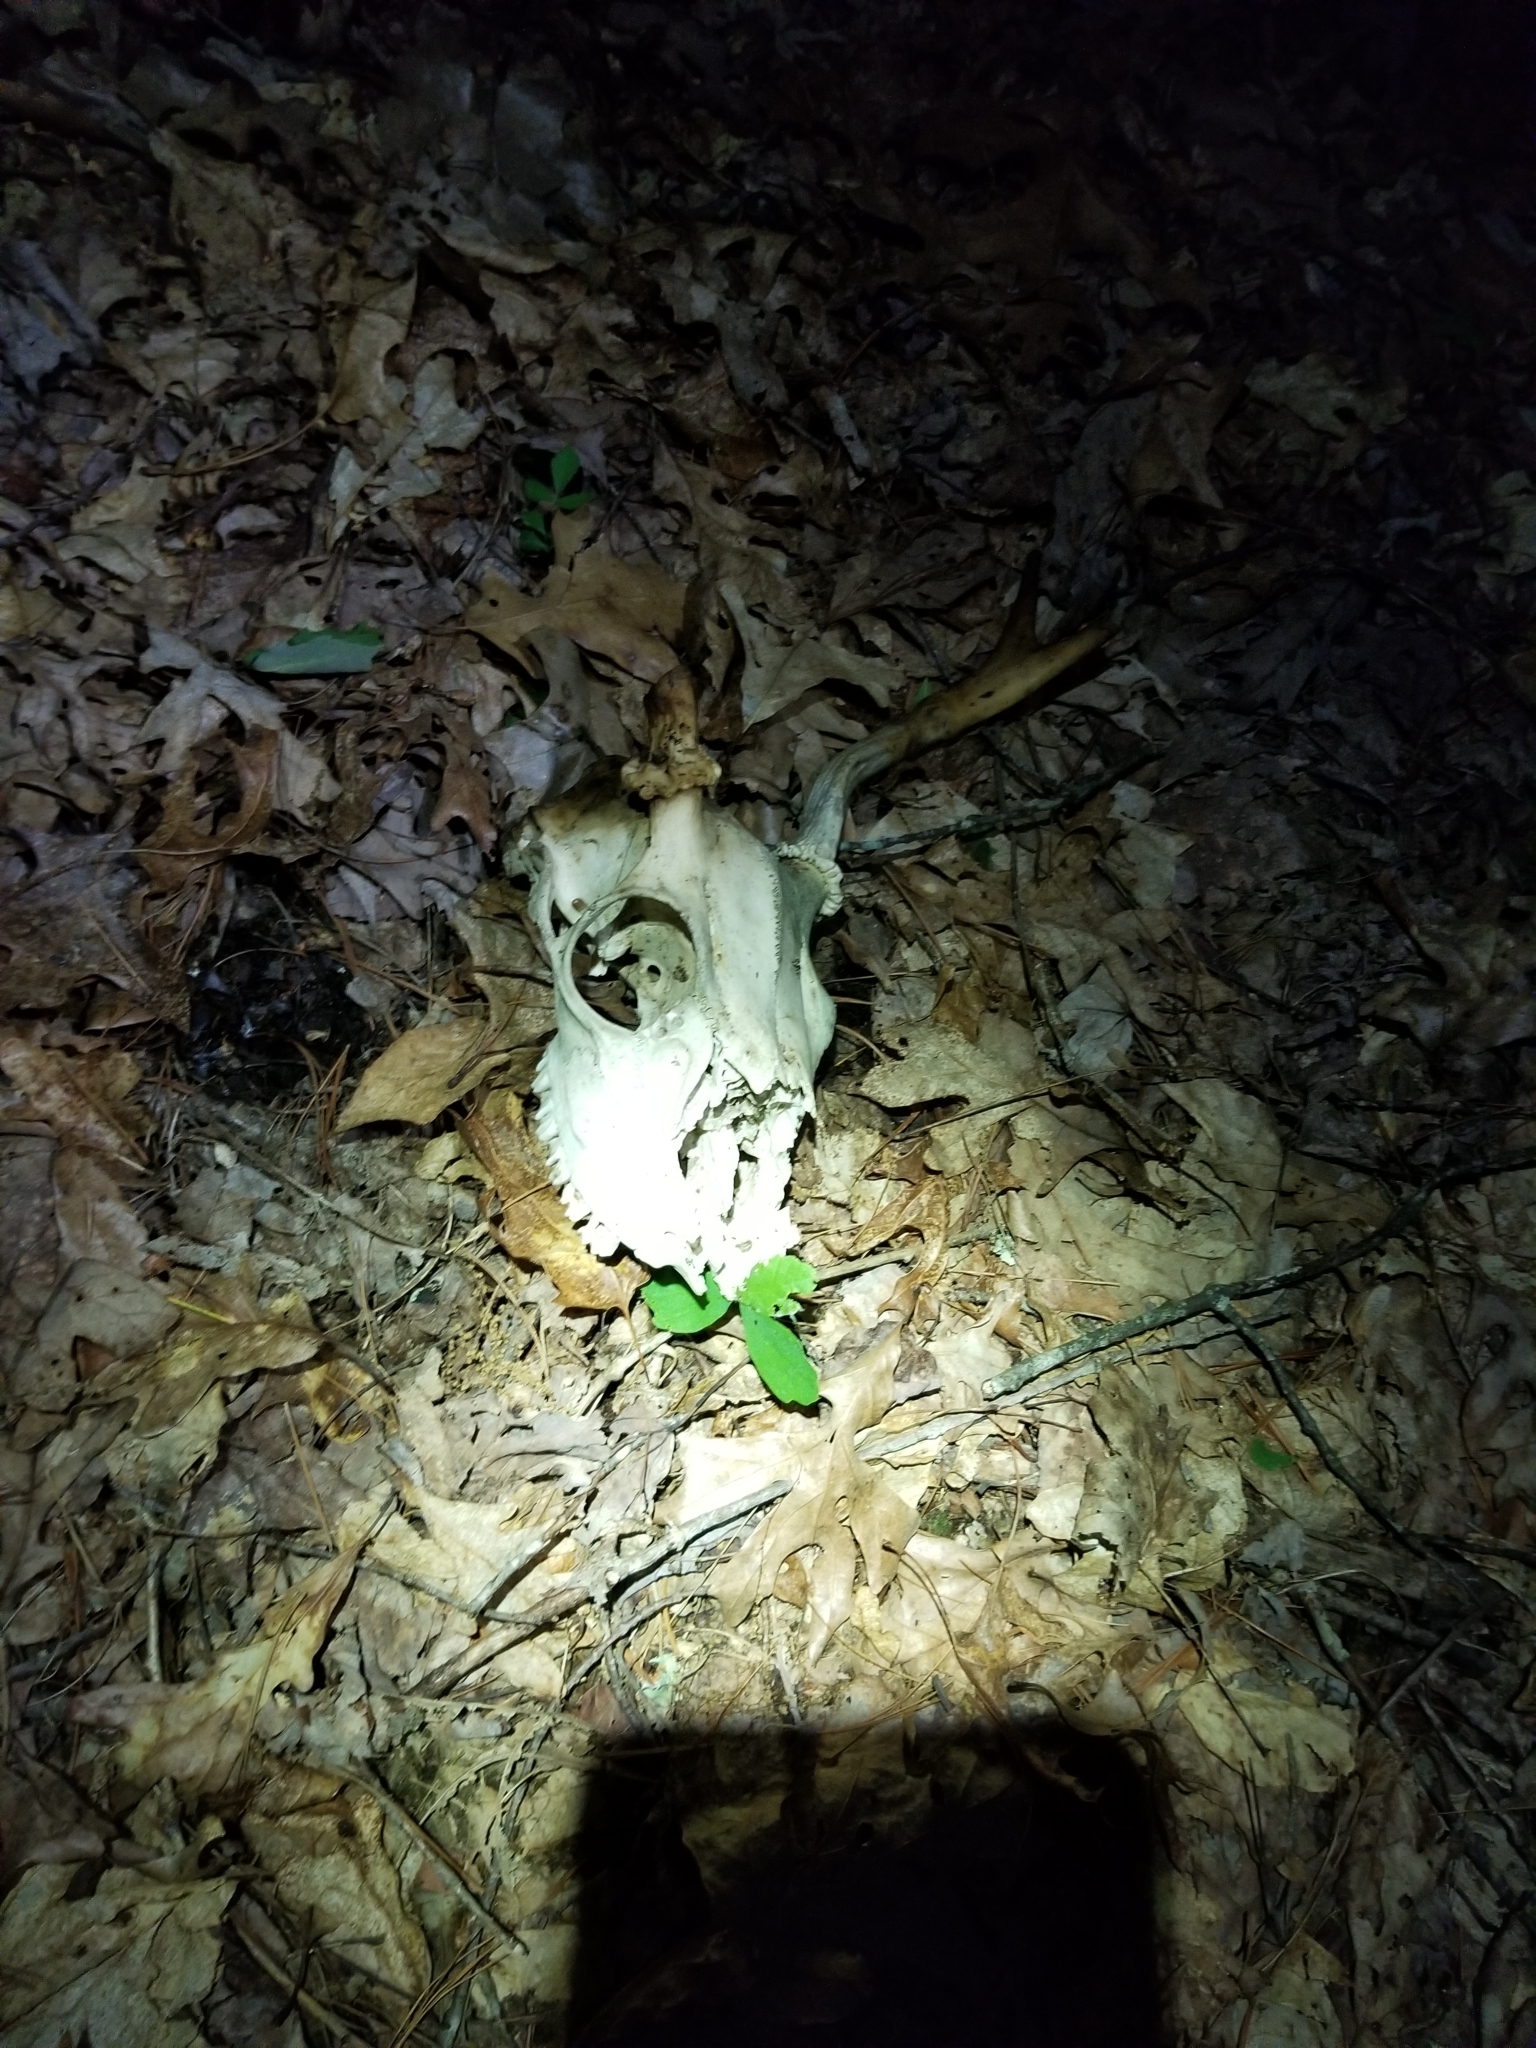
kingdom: Animalia
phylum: Chordata
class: Mammalia
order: Artiodactyla
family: Cervidae
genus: Odocoileus
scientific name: Odocoileus virginianus
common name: White-tailed deer
